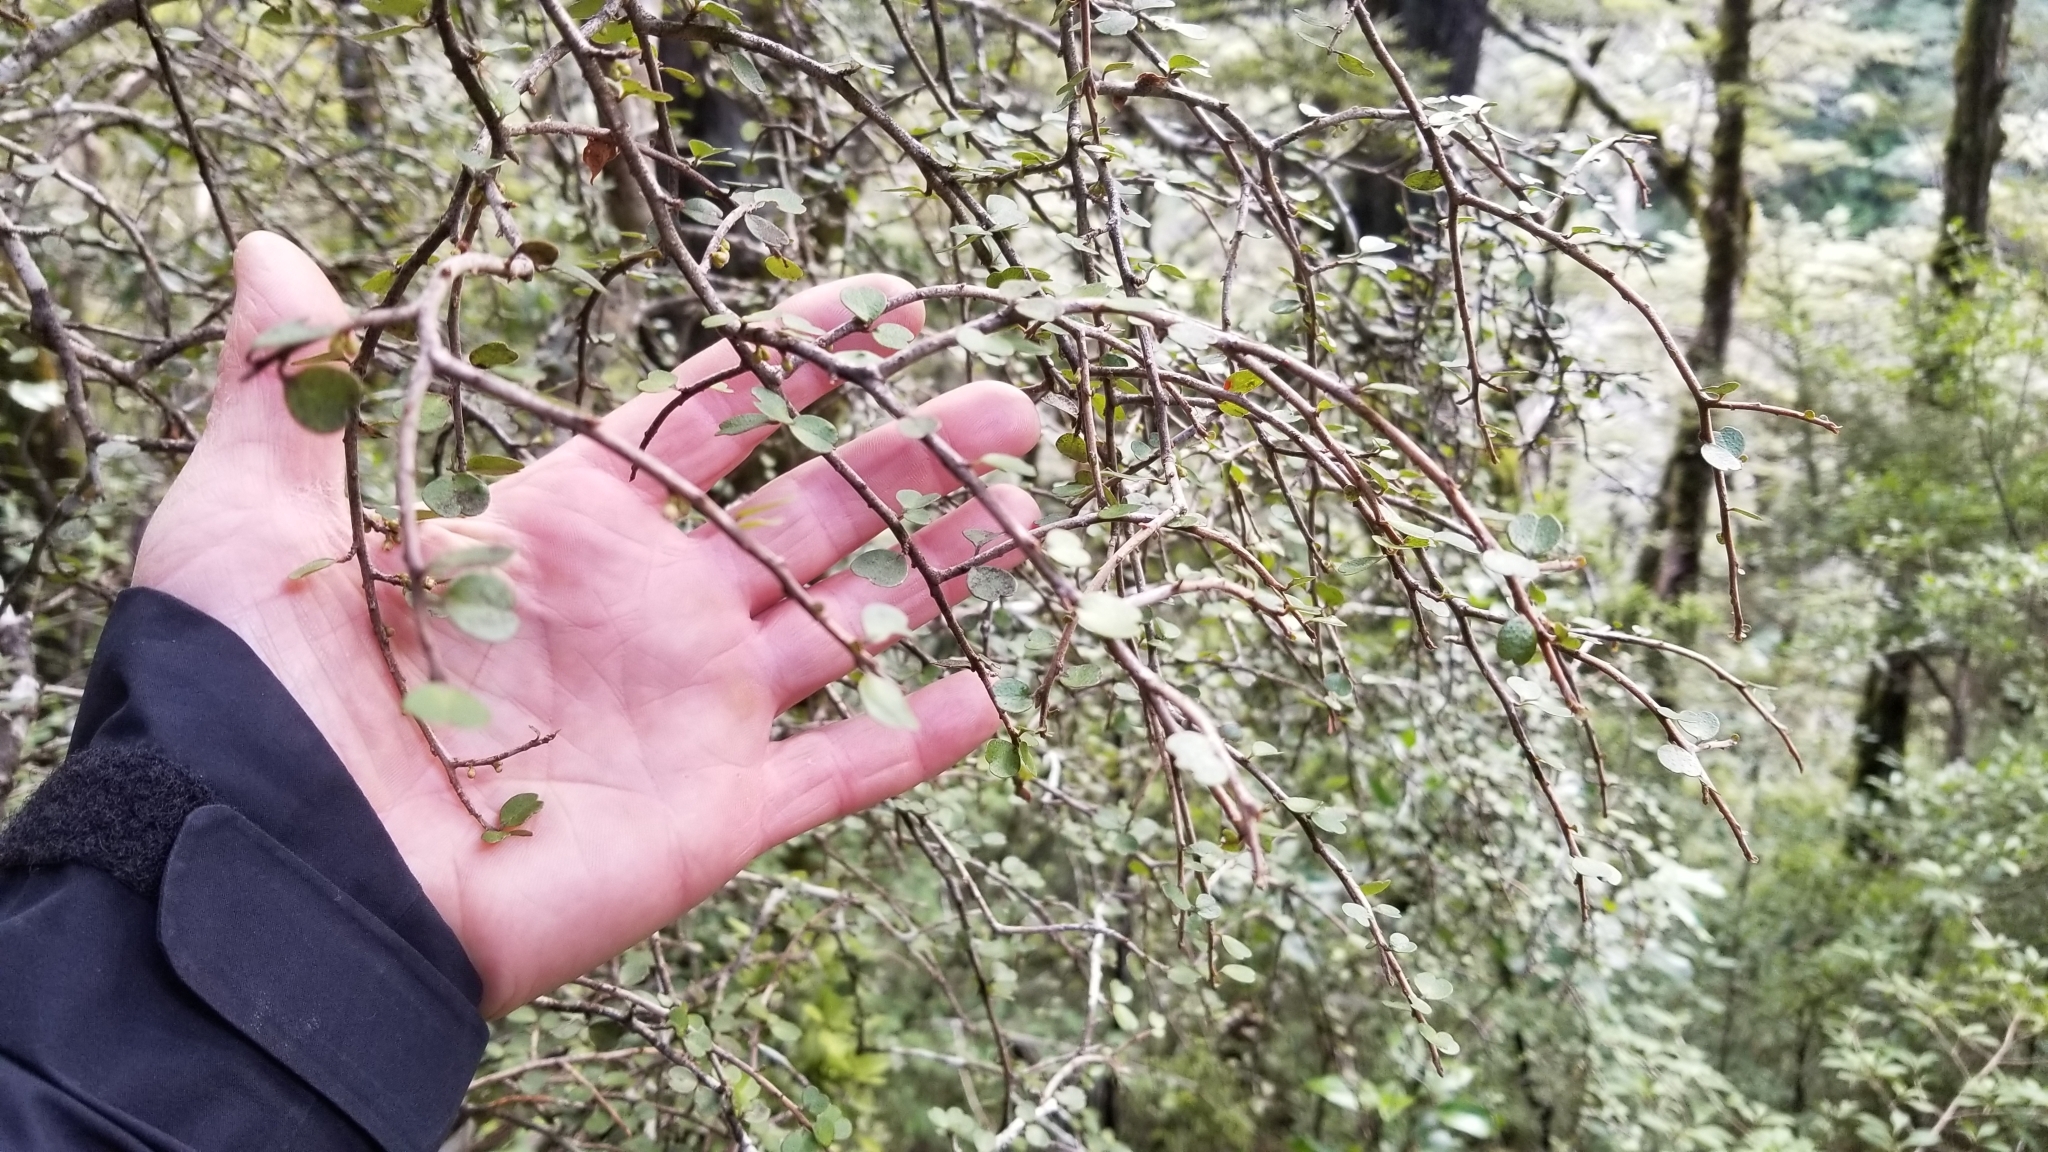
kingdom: Plantae
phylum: Tracheophyta
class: Magnoliopsida
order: Ericales
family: Primulaceae
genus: Myrsine
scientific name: Myrsine divaricata
